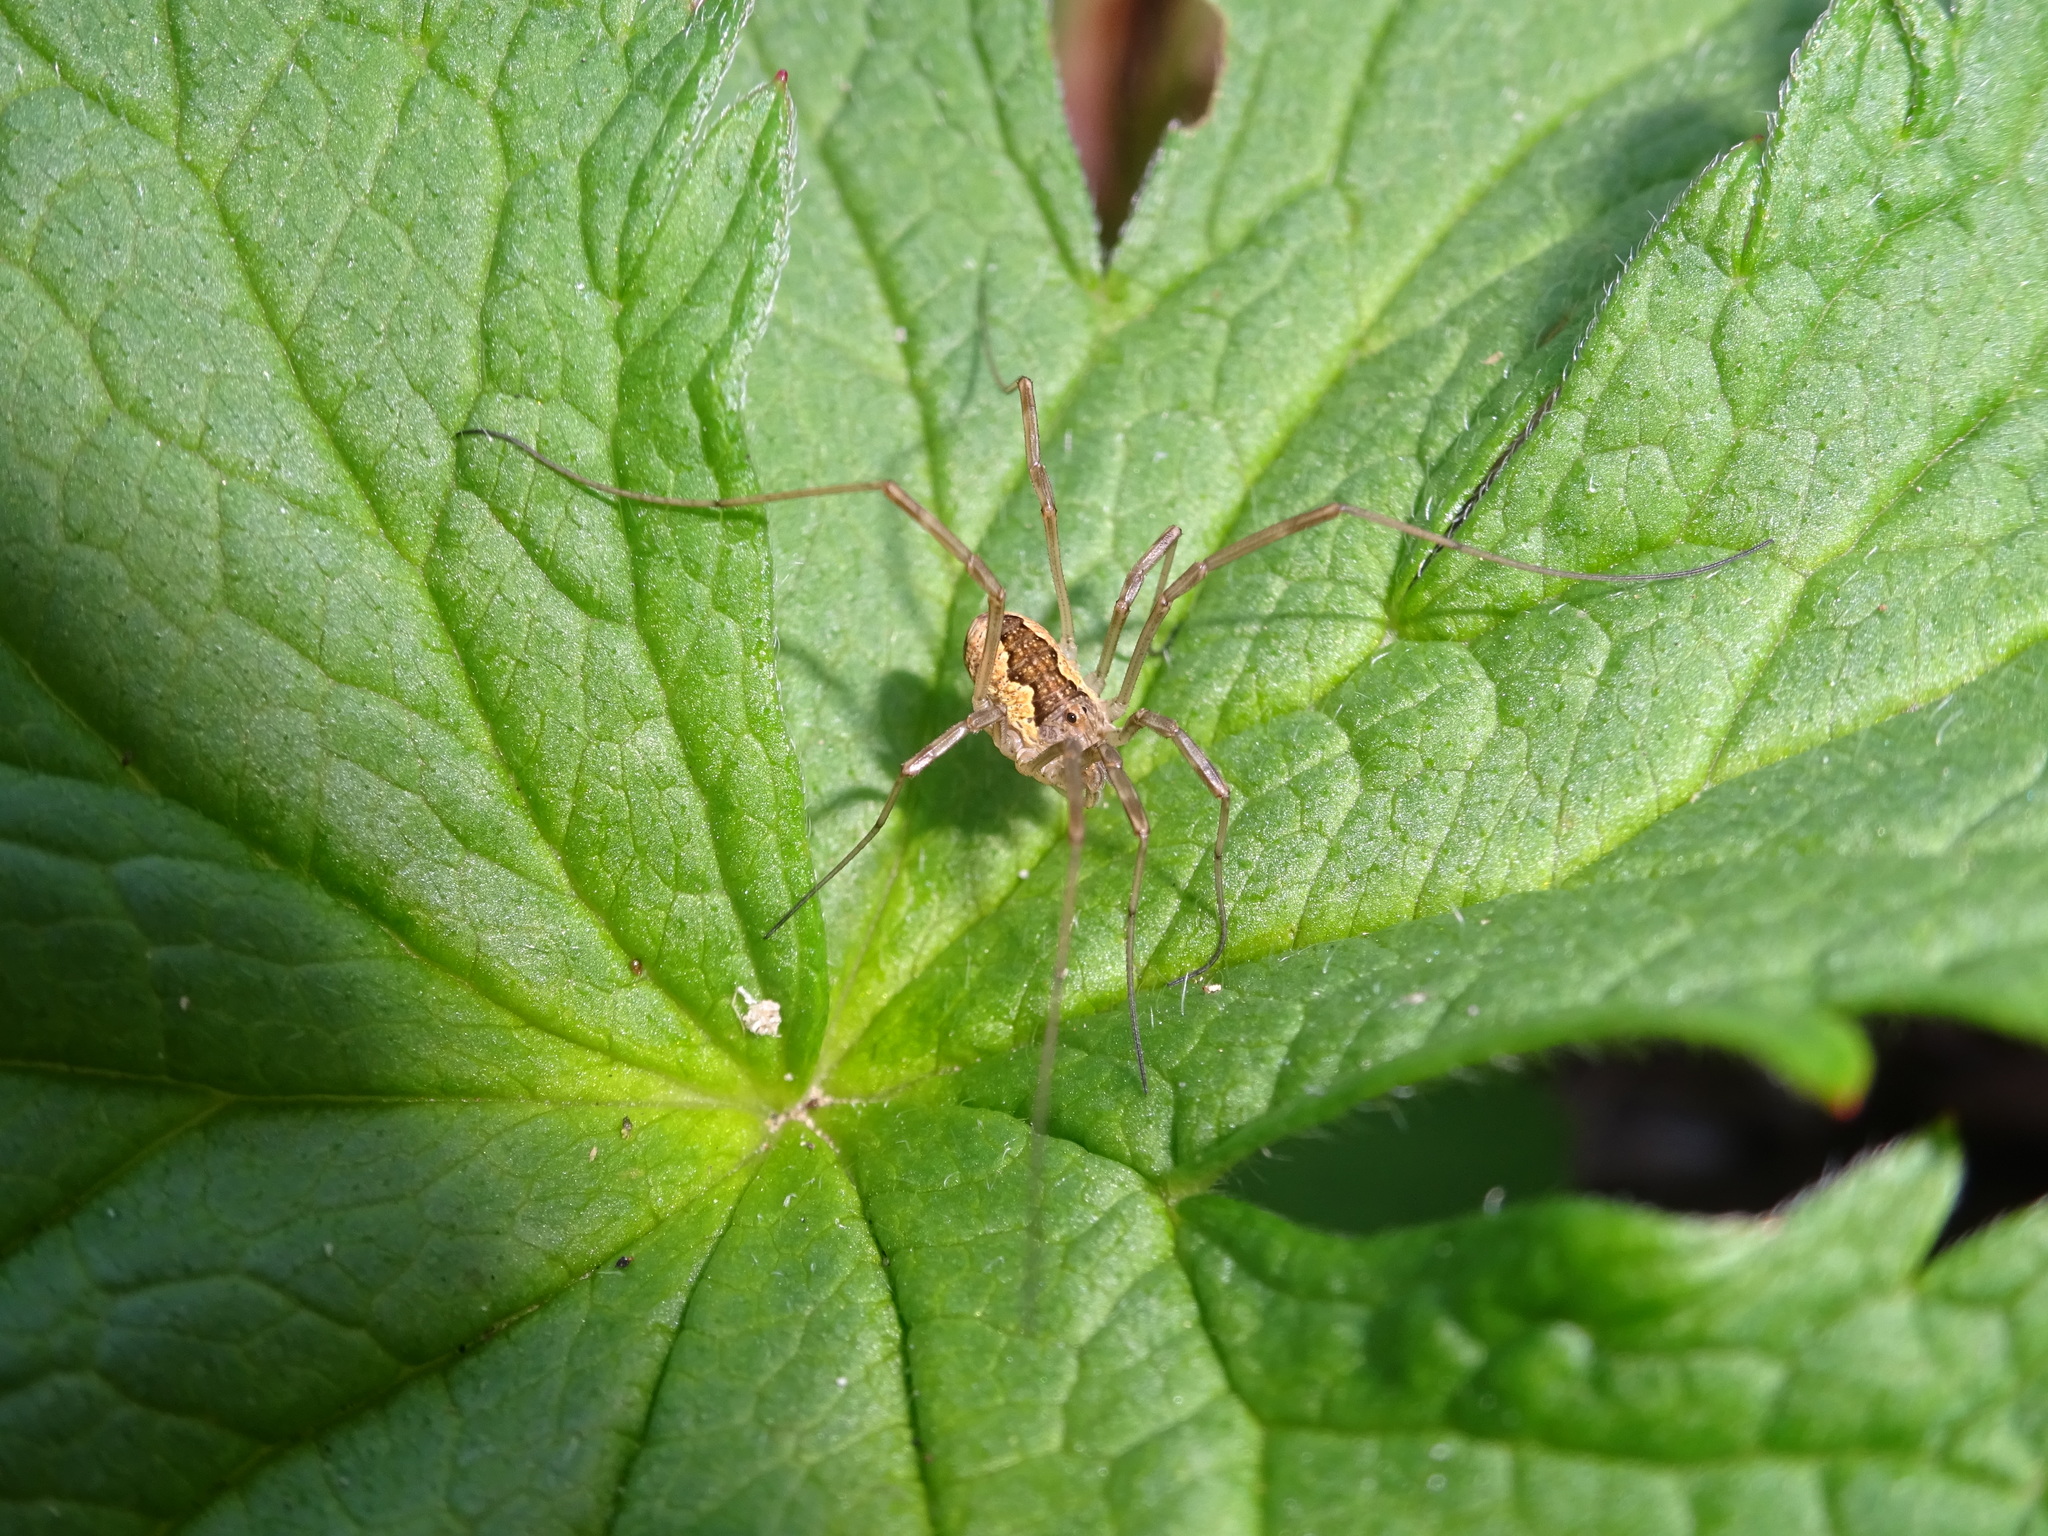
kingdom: Animalia
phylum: Arthropoda
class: Arachnida
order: Opiliones
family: Phalangiidae
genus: Mitopus
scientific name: Mitopus morio
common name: Saddleback harvestman
